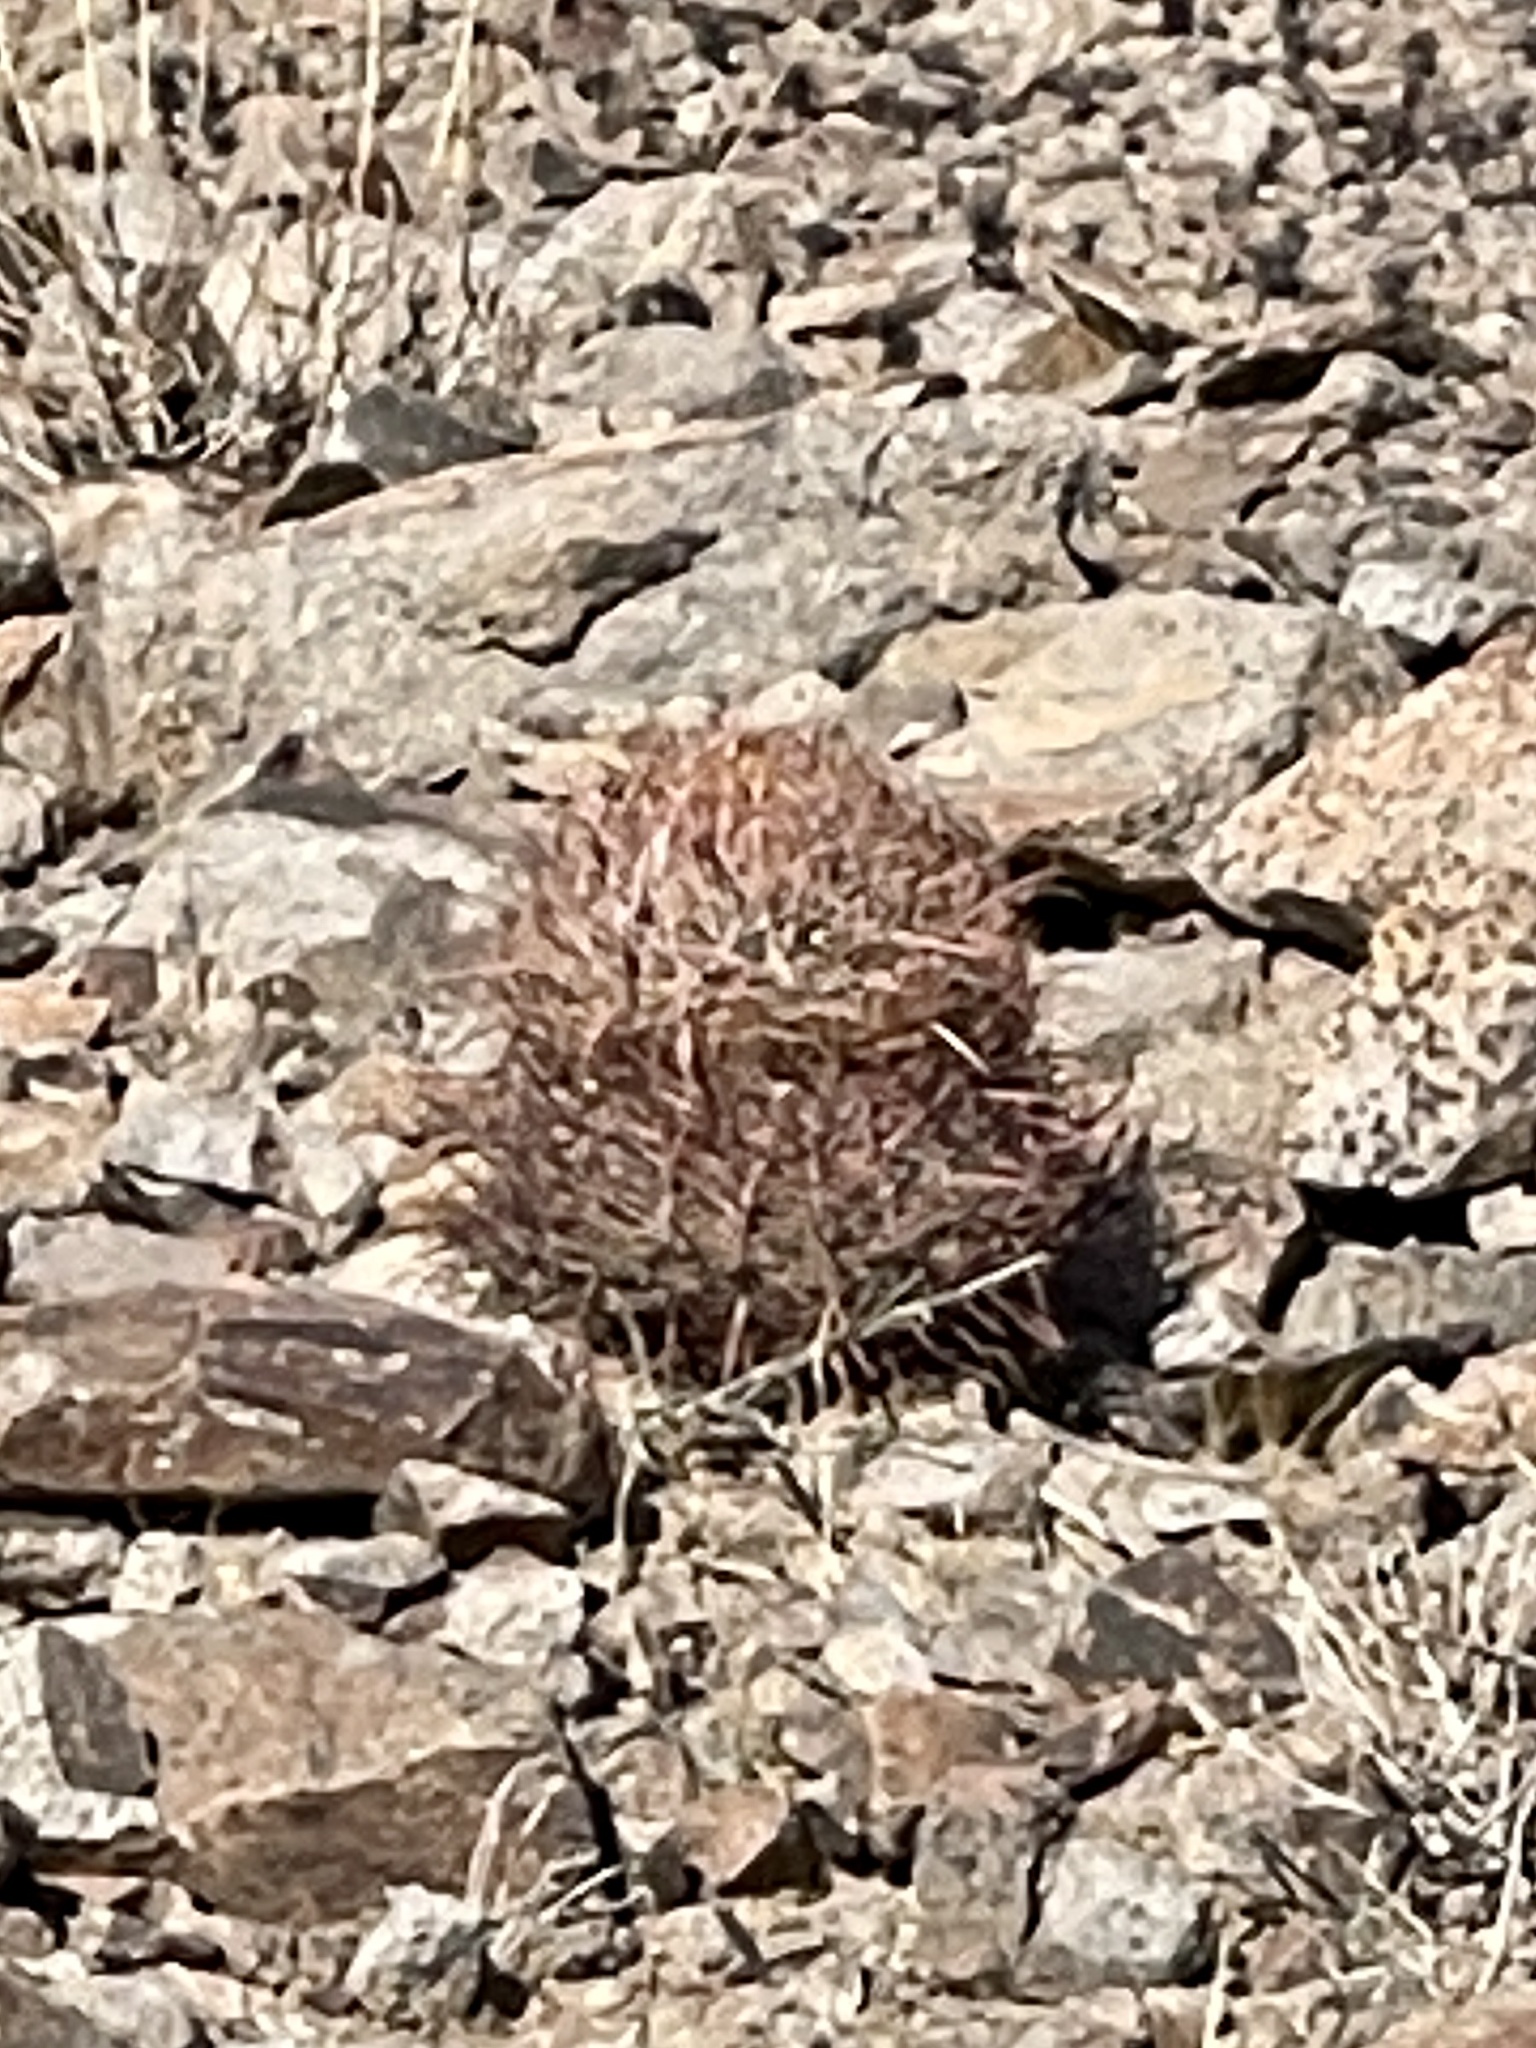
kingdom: Plantae
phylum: Tracheophyta
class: Magnoliopsida
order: Caryophyllales
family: Cactaceae
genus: Ferocactus
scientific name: Ferocactus cylindraceus
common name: California barrel cactus
